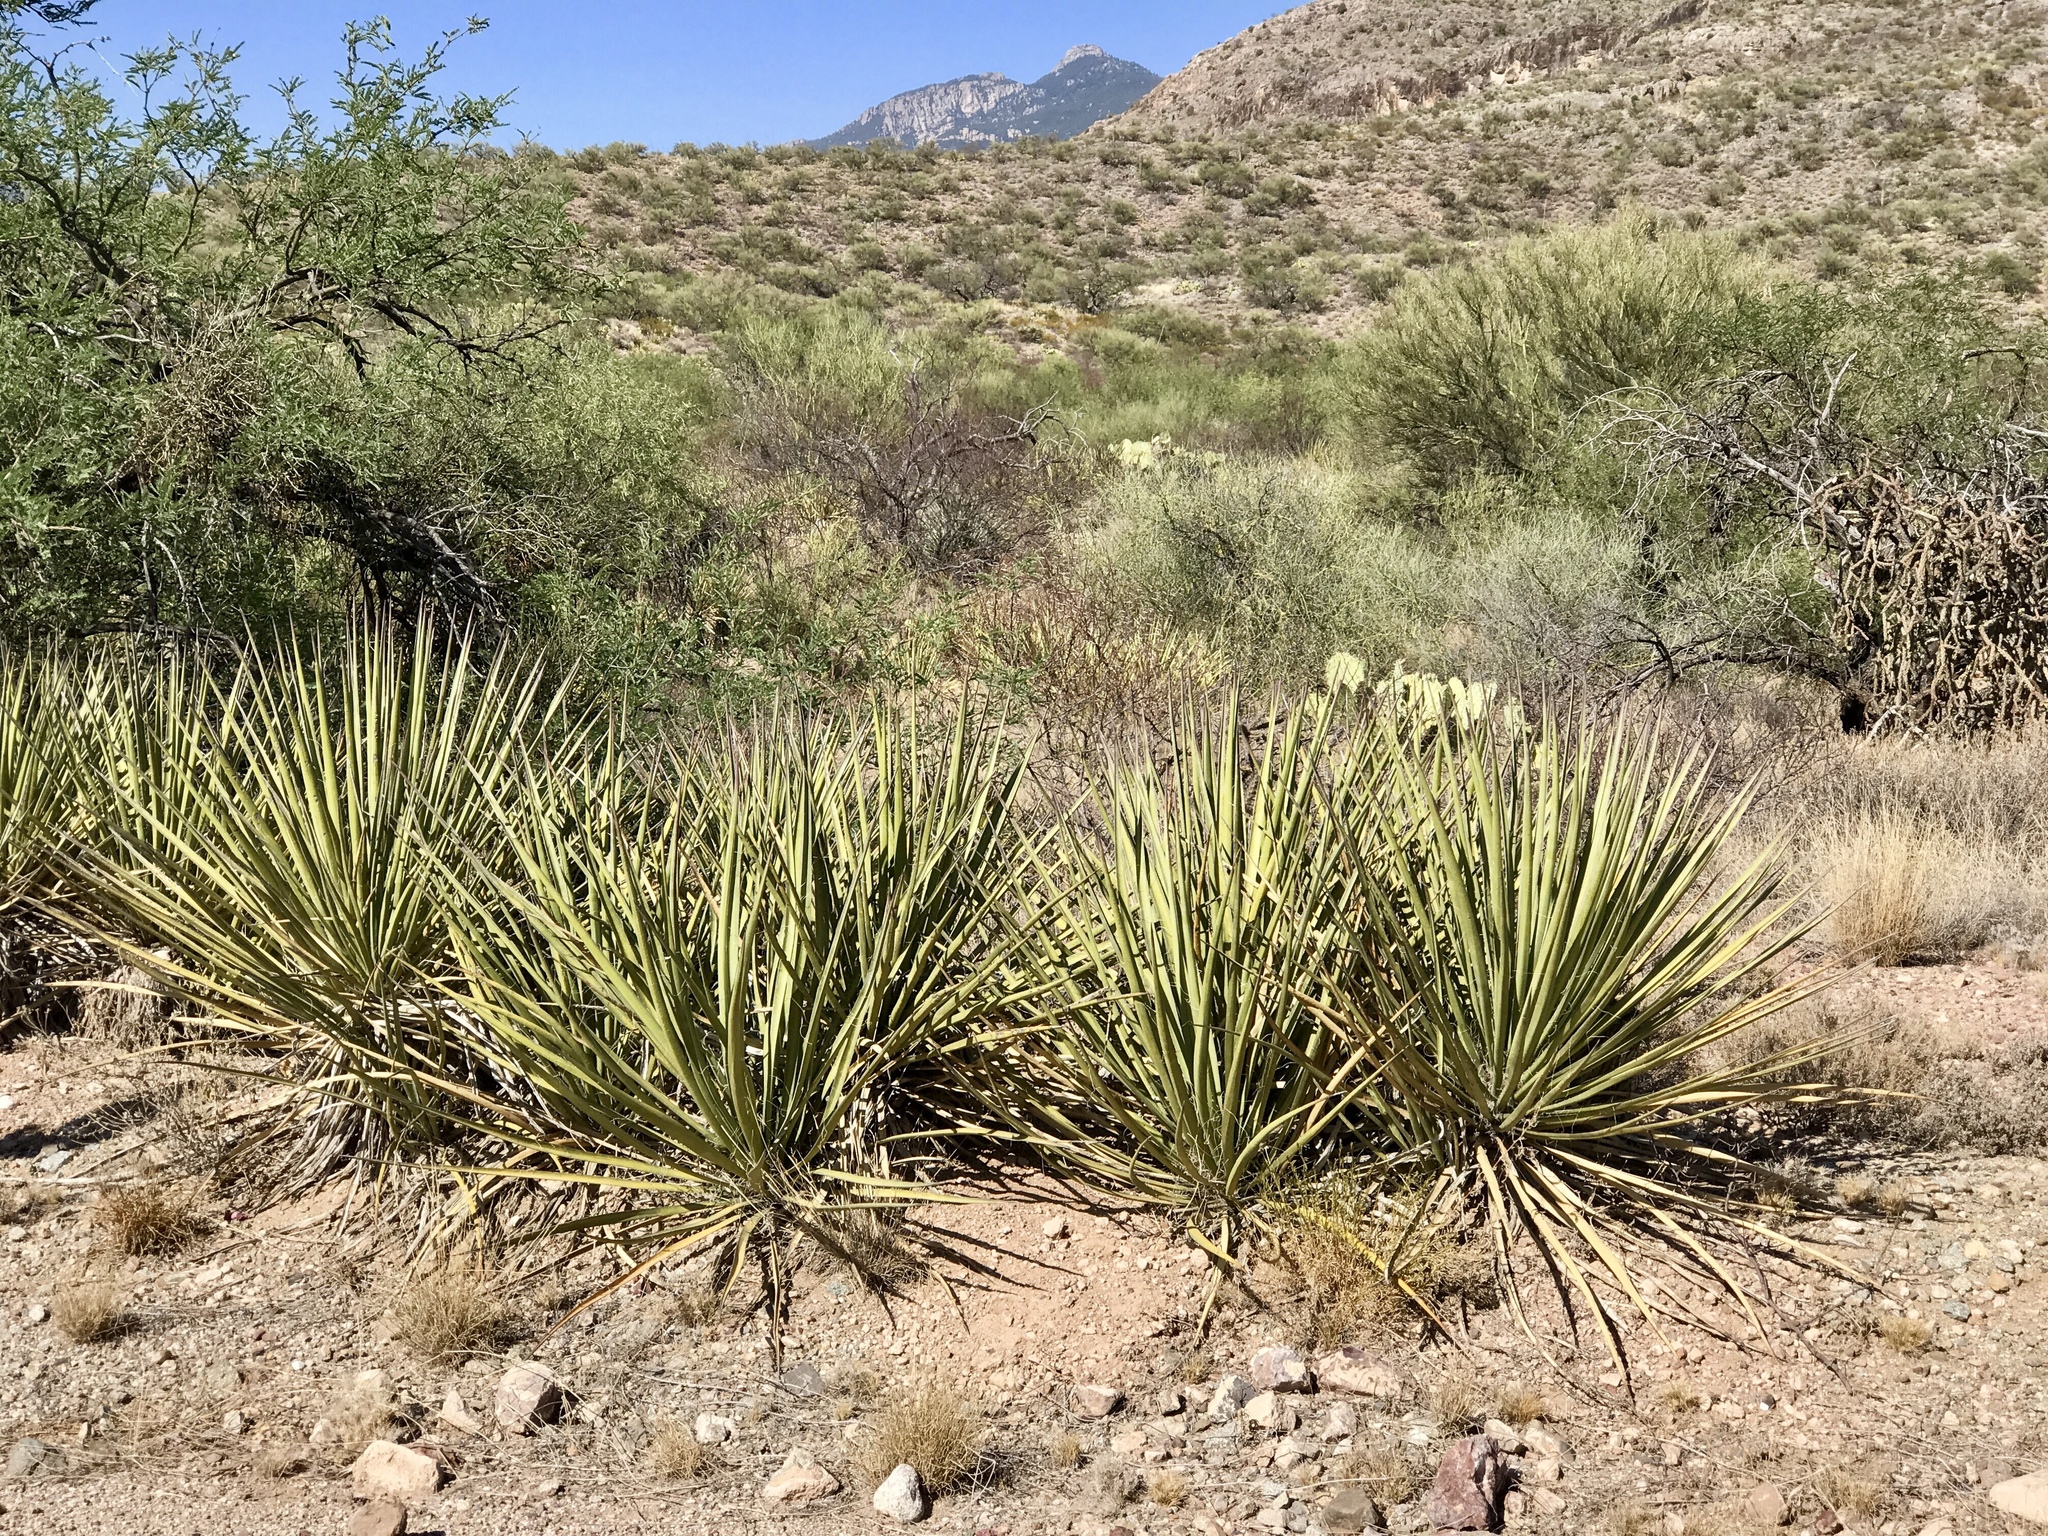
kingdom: Plantae
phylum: Tracheophyta
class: Liliopsida
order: Asparagales
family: Asparagaceae
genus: Yucca
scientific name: Yucca baccata
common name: Banana yucca
